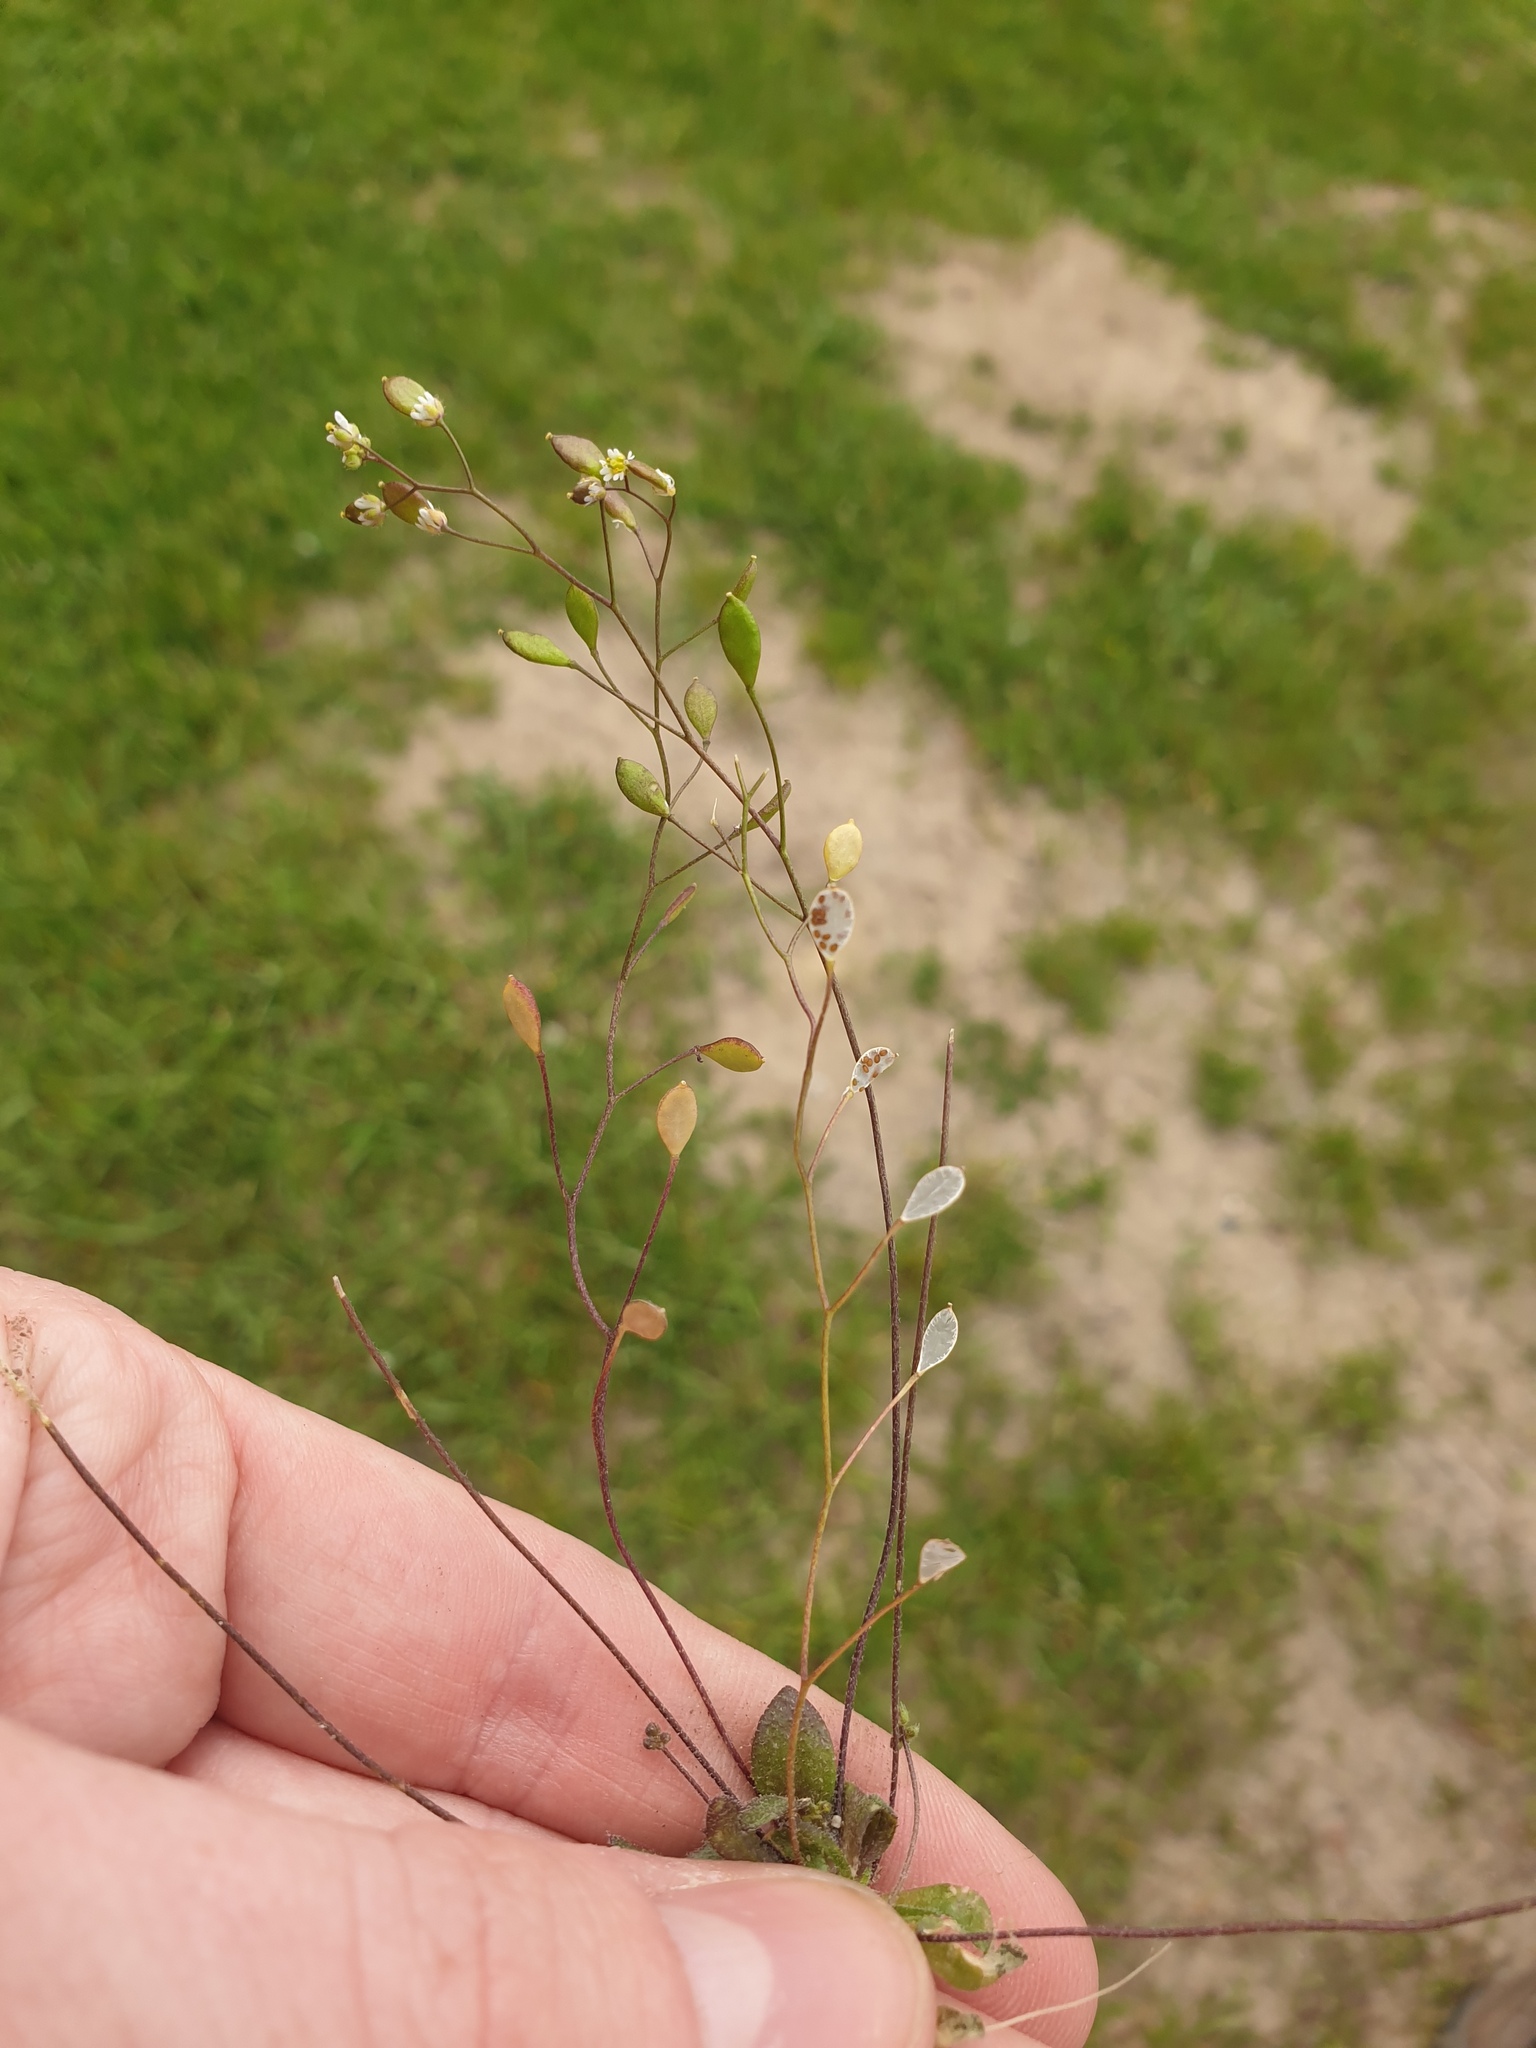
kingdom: Plantae
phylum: Tracheophyta
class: Magnoliopsida
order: Brassicales
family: Brassicaceae
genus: Draba
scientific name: Draba verna
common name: Spring draba
